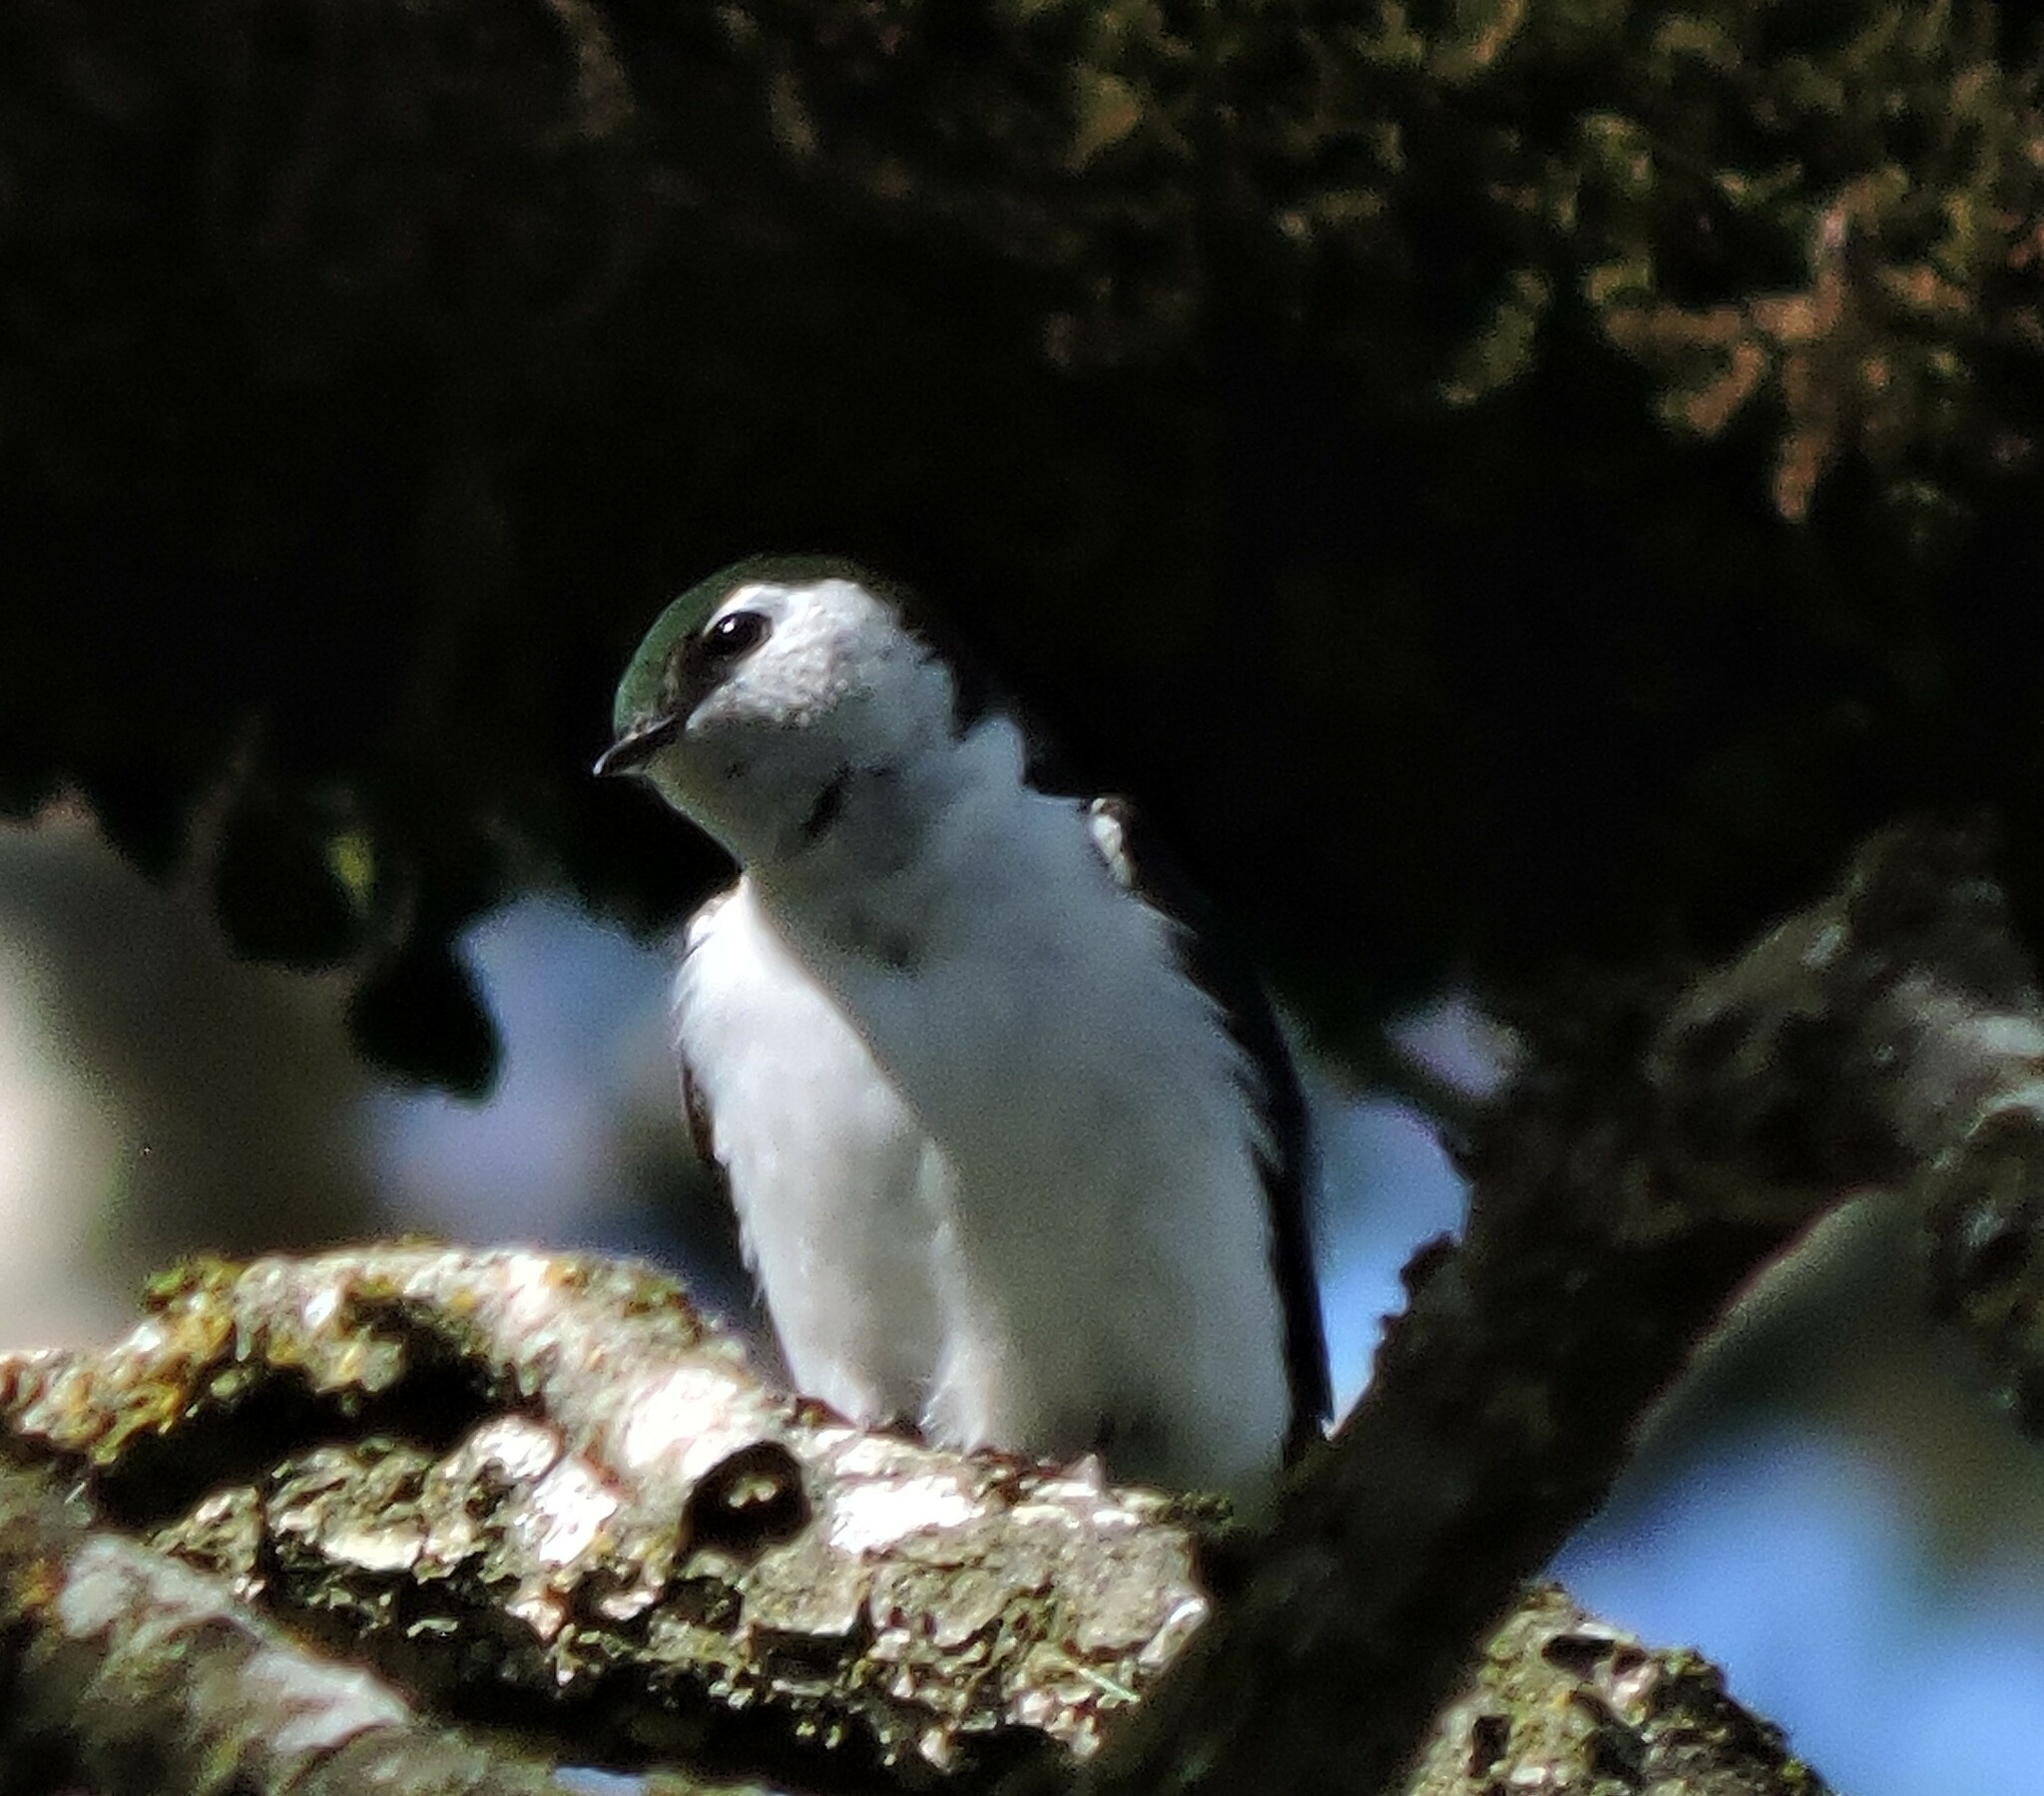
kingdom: Animalia
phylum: Chordata
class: Aves
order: Passeriformes
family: Hirundinidae
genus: Tachycineta
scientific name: Tachycineta thalassina
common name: Violet-green swallow
